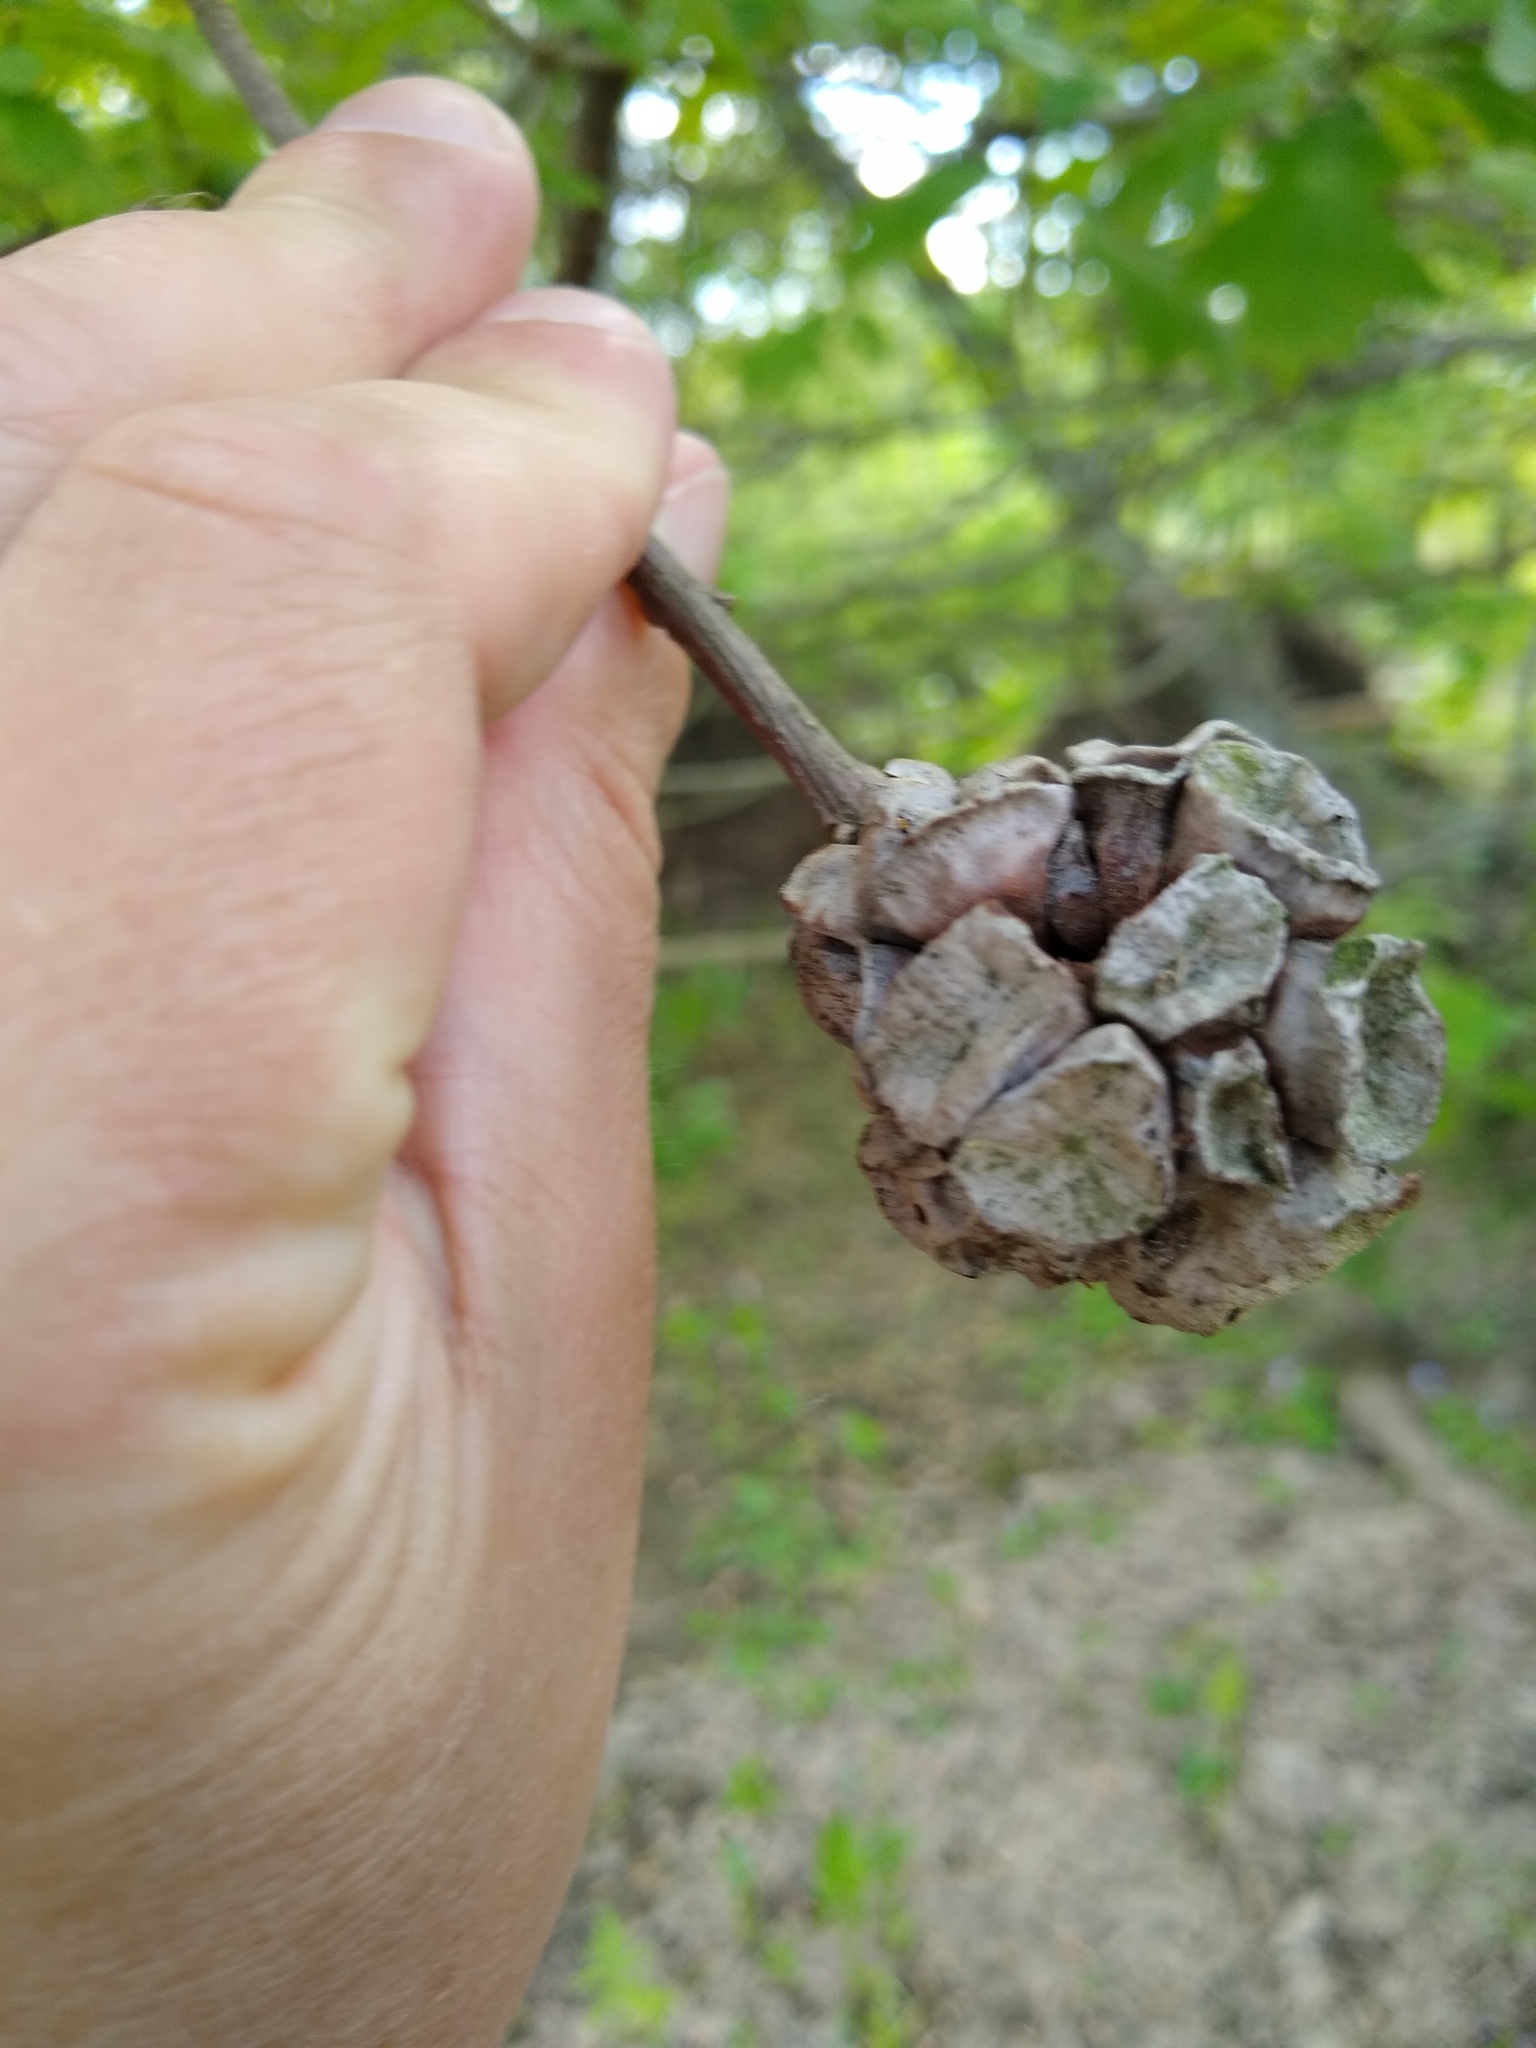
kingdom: Animalia
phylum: Arthropoda
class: Insecta
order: Hymenoptera
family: Cynipidae
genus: Andricus
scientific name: Andricus
